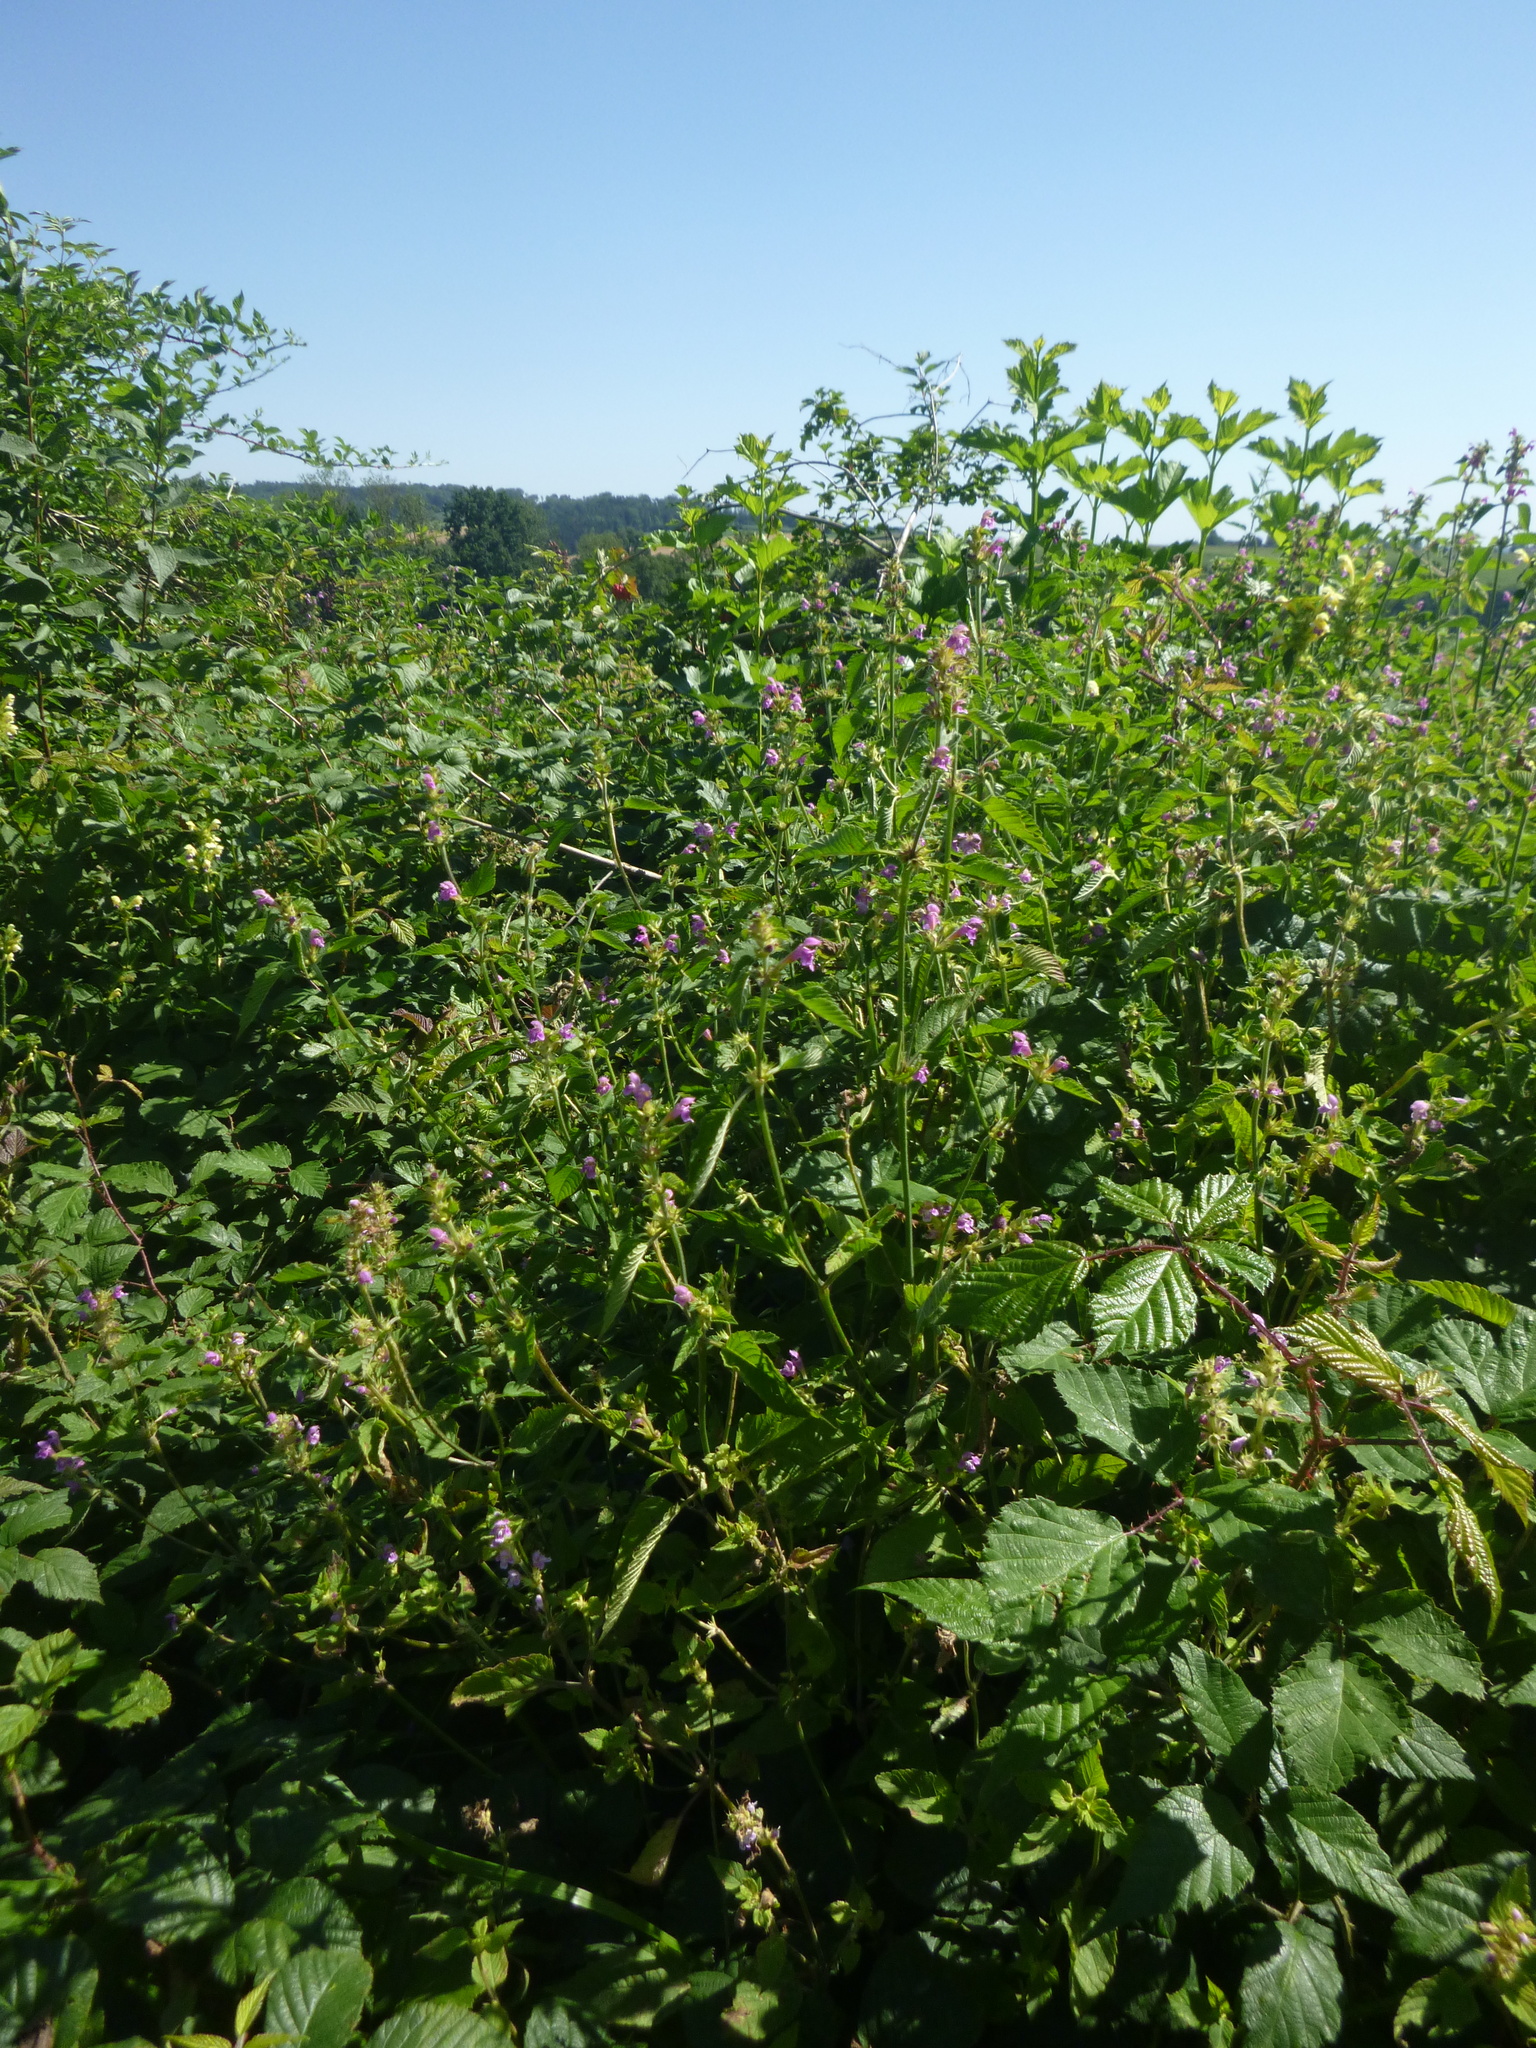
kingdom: Plantae
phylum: Tracheophyta
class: Magnoliopsida
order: Lamiales
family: Lamiaceae
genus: Galeopsis
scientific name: Galeopsis pubescens
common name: Downy hemp-nettle
